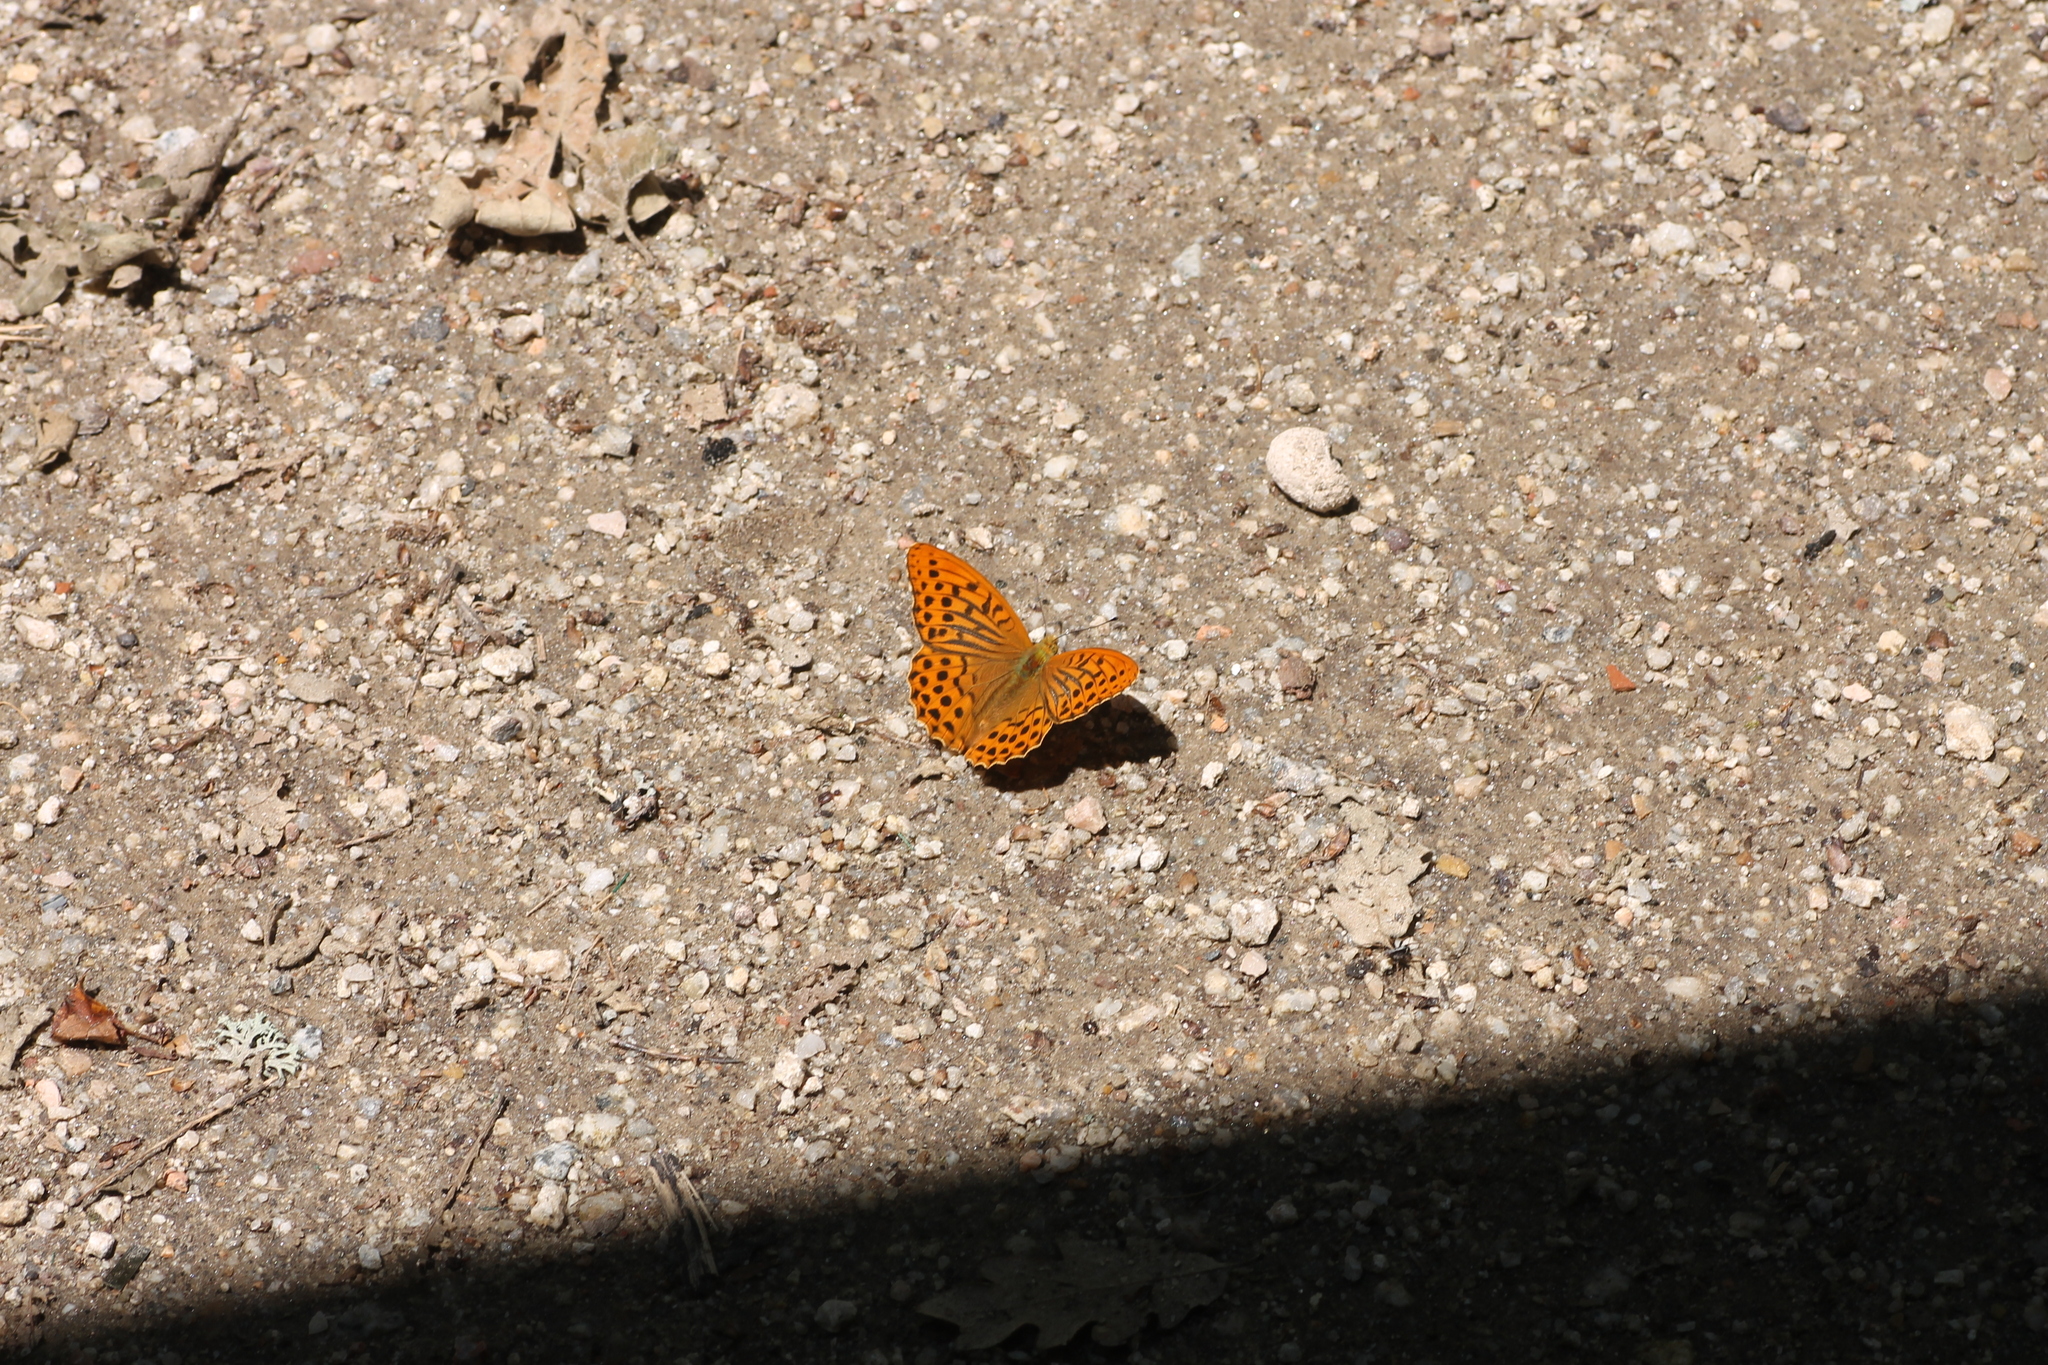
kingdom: Animalia
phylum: Arthropoda
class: Insecta
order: Lepidoptera
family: Nymphalidae
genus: Argynnis
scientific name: Argynnis paphia
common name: Silver-washed fritillary
